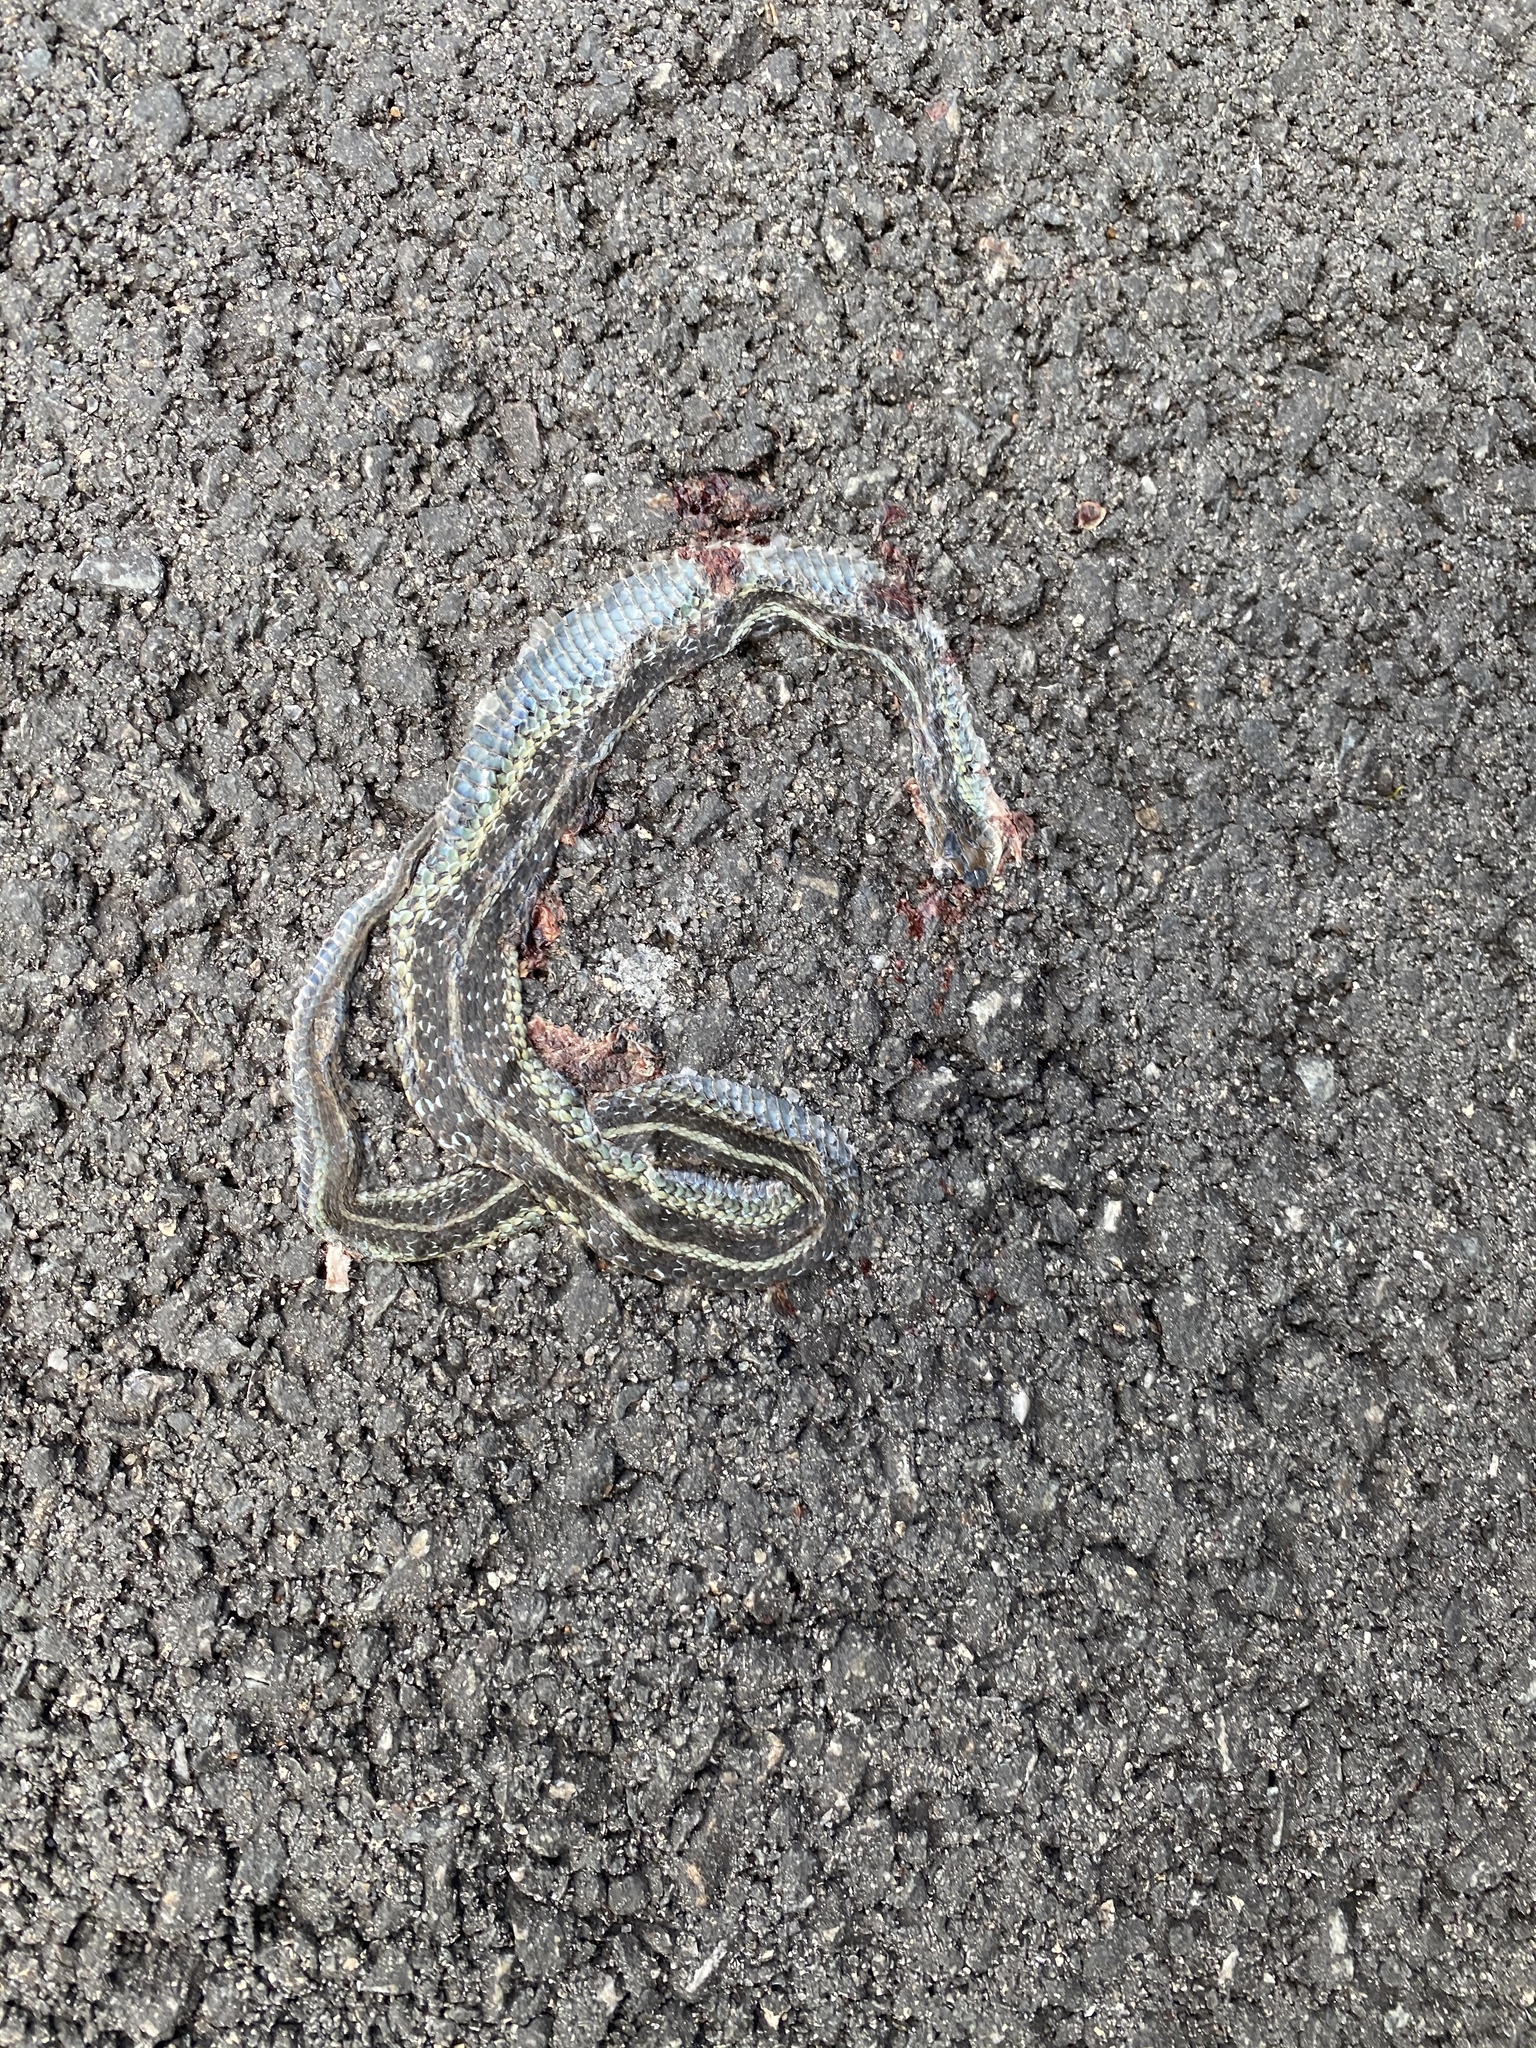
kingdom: Animalia
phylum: Chordata
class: Squamata
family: Colubridae
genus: Thamnophis
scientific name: Thamnophis sirtalis
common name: Common garter snake
